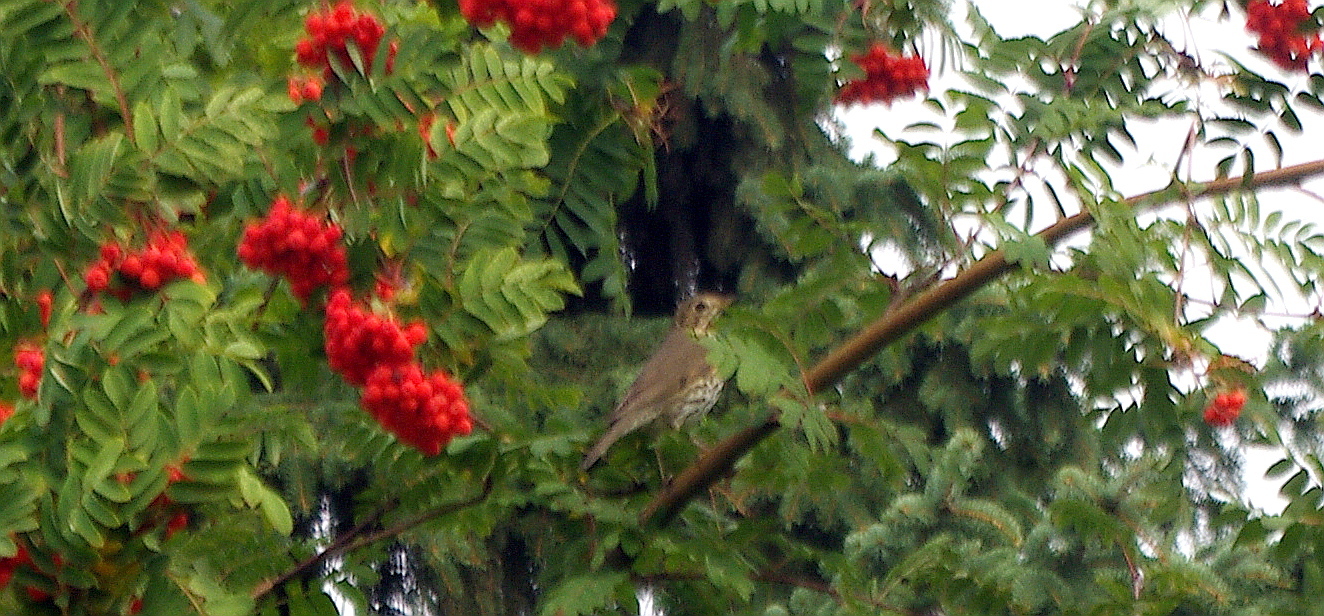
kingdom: Animalia
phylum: Chordata
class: Aves
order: Passeriformes
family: Turdidae
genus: Turdus
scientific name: Turdus philomelos
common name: Song thrush
